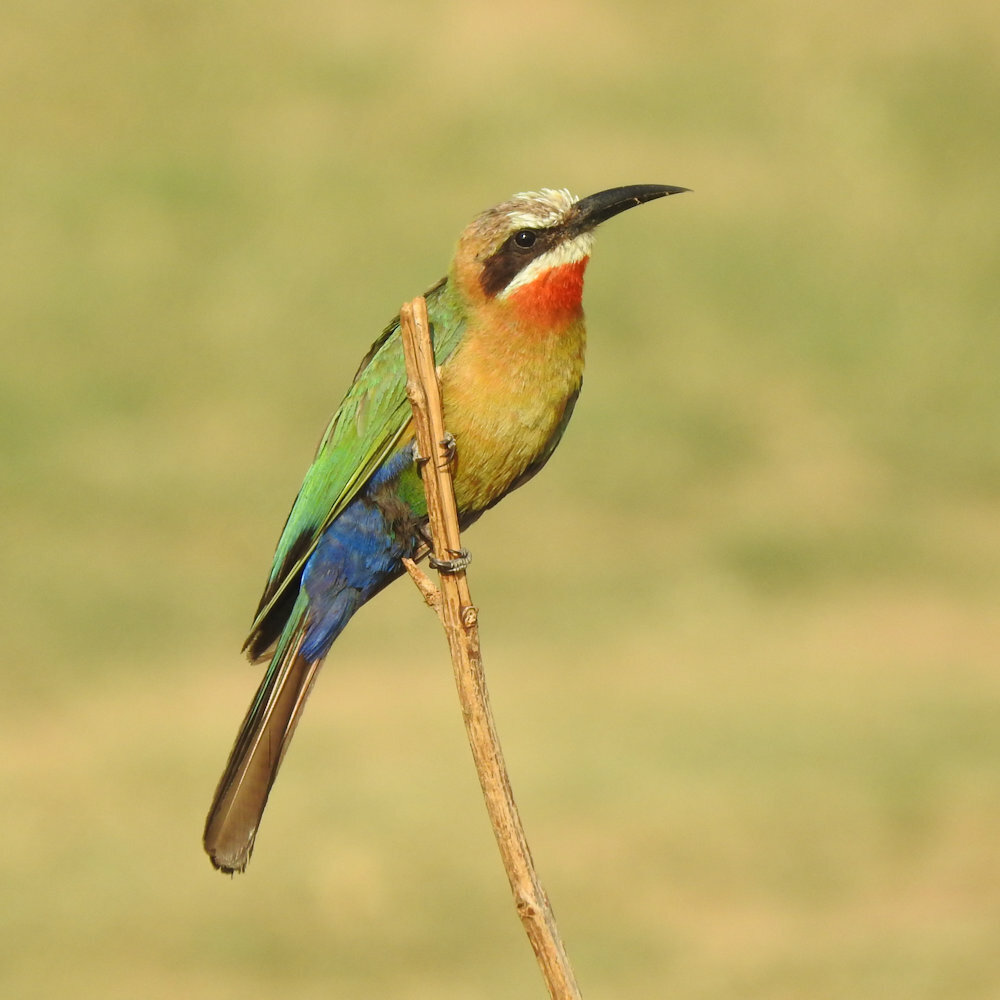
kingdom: Animalia
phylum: Chordata
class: Aves
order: Coraciiformes
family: Meropidae
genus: Merops
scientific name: Merops bullockoides
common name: White-fronted bee-eater
